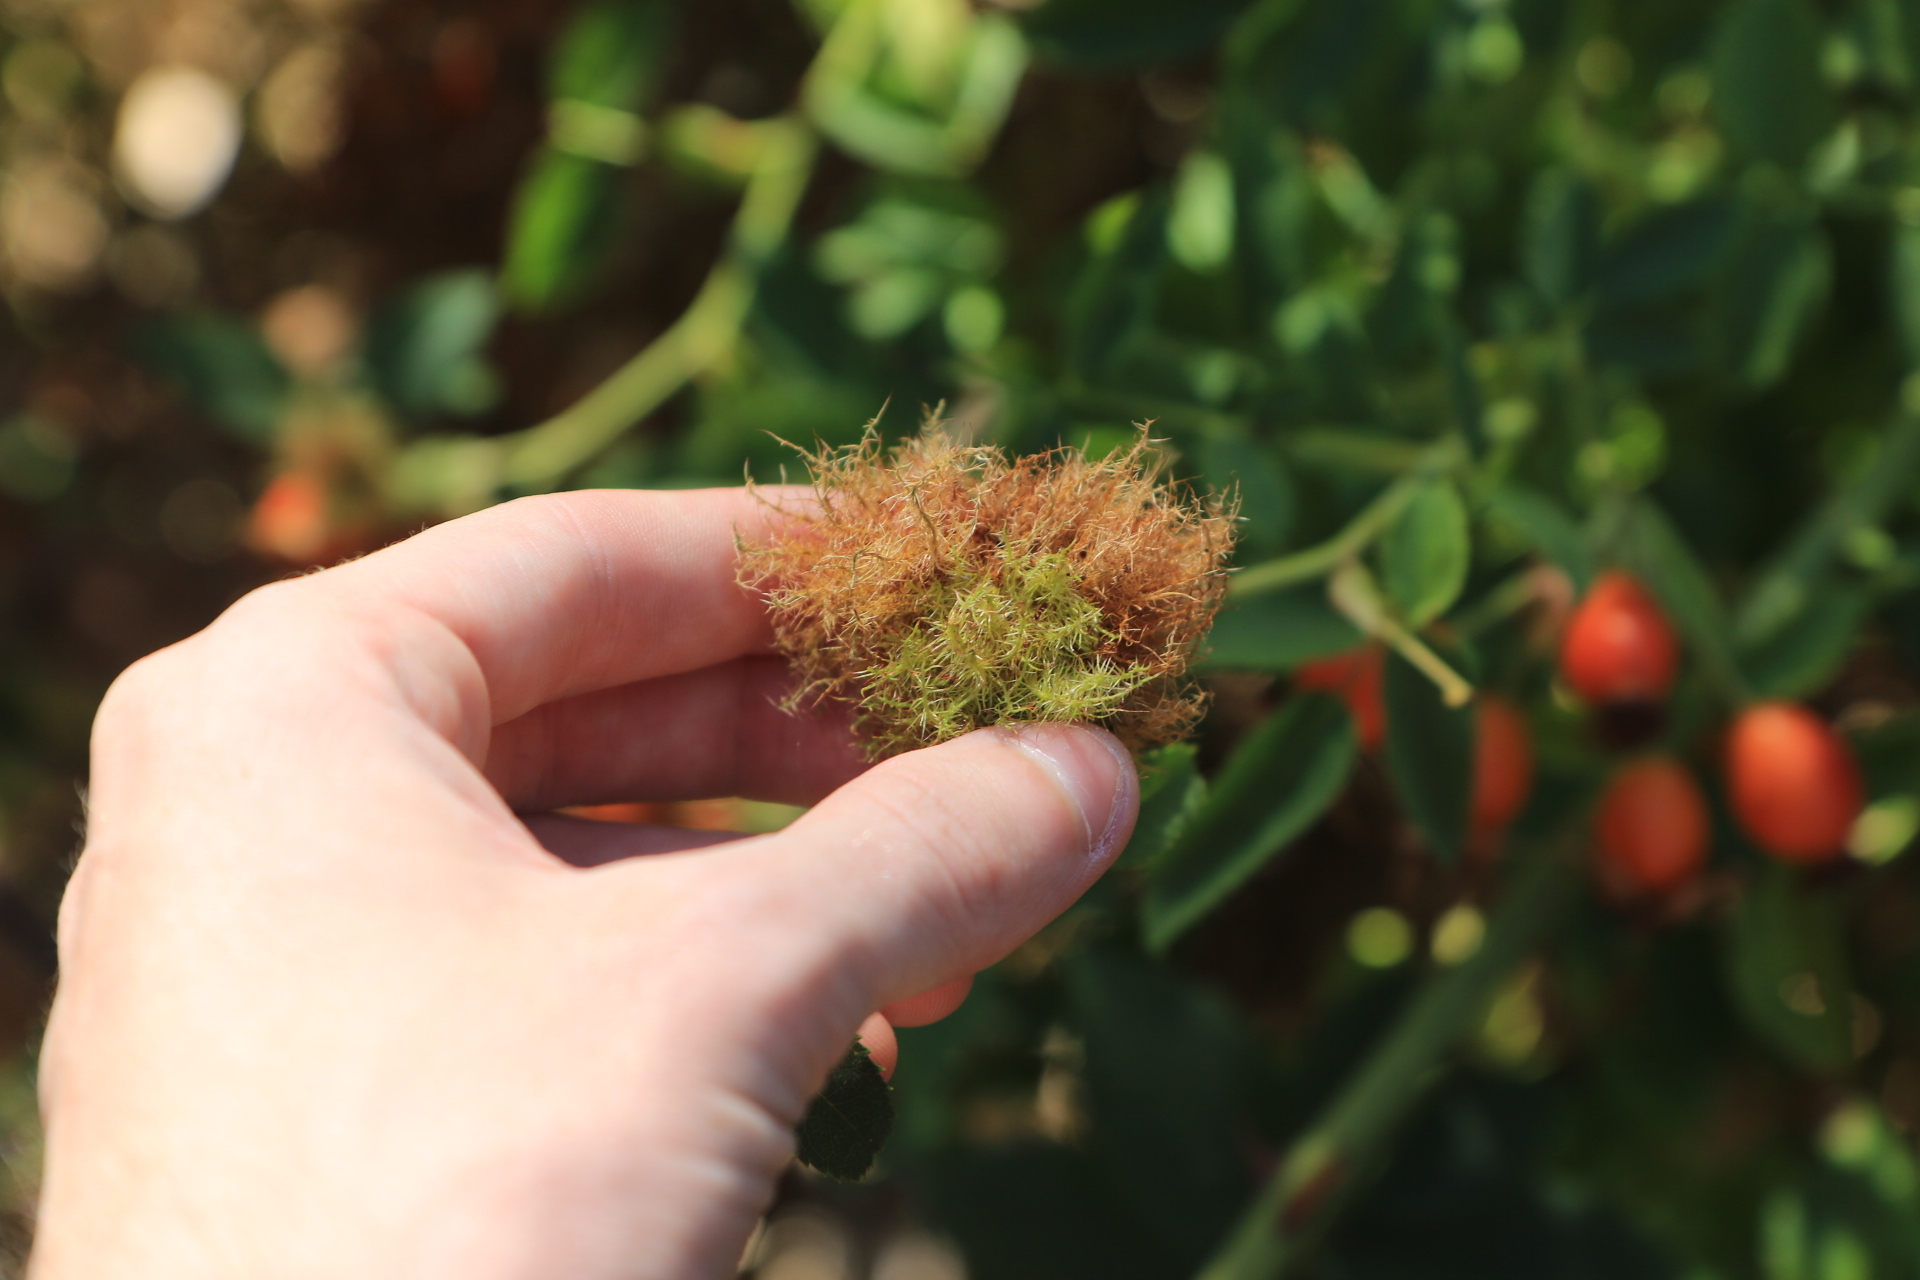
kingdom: Animalia
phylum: Arthropoda
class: Insecta
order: Hymenoptera
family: Cynipidae
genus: Diplolepis
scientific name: Diplolepis rosae
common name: Bedeguar gall
